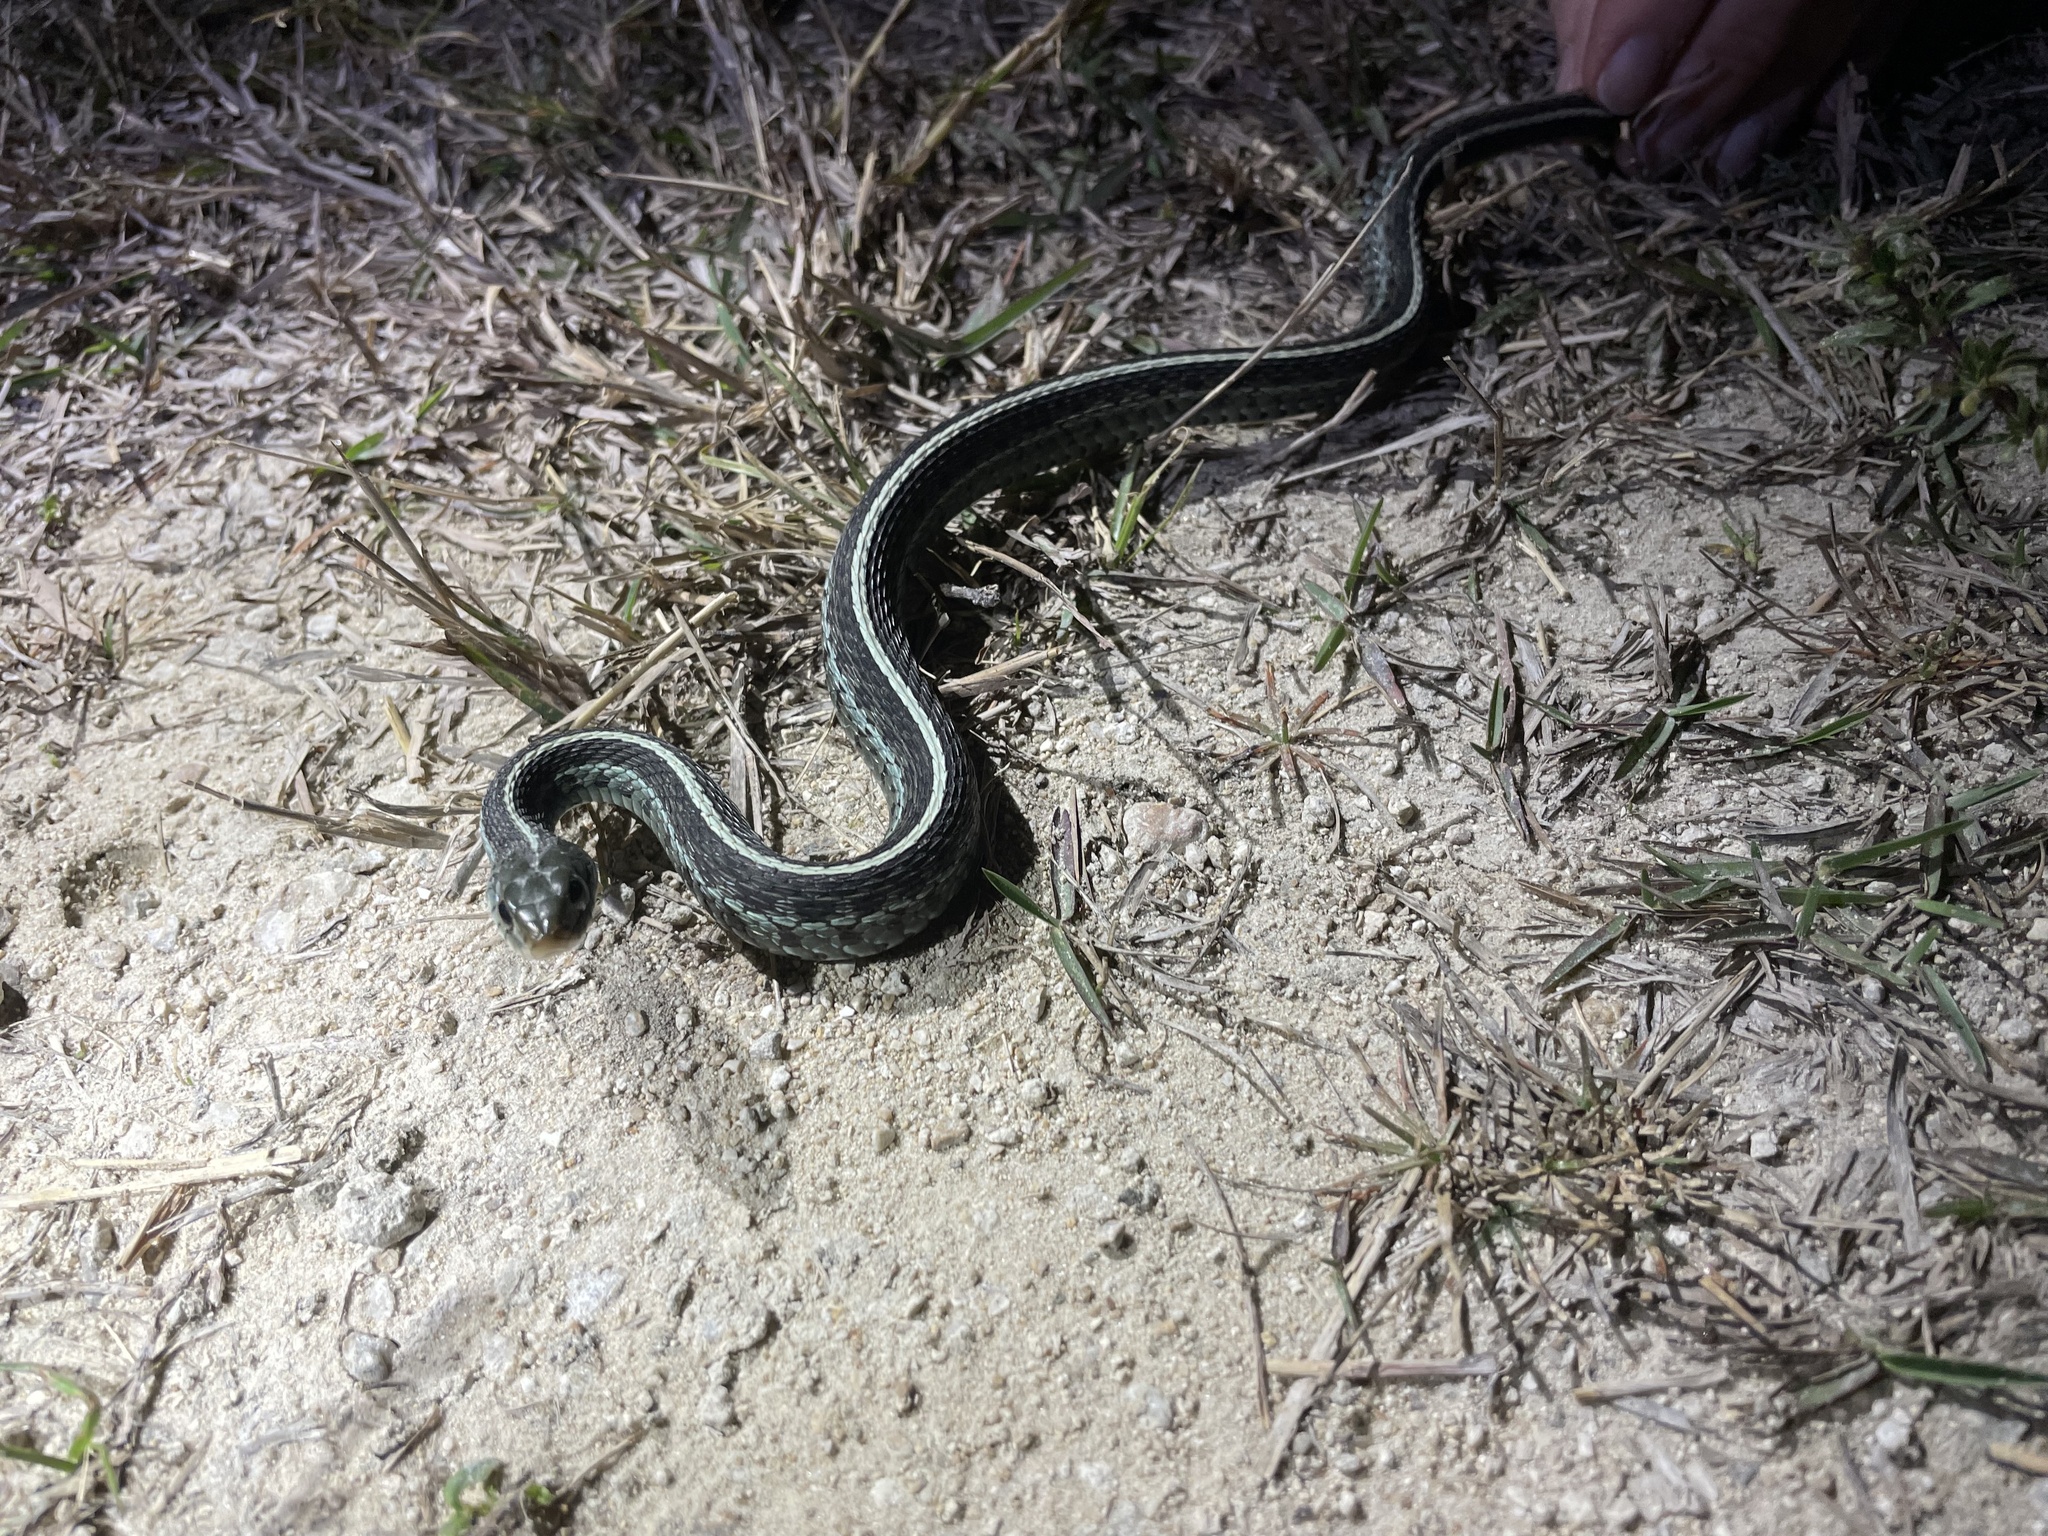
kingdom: Animalia
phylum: Chordata
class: Squamata
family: Colubridae
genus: Thamnophis
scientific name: Thamnophis sirtalis
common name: Common garter snake
